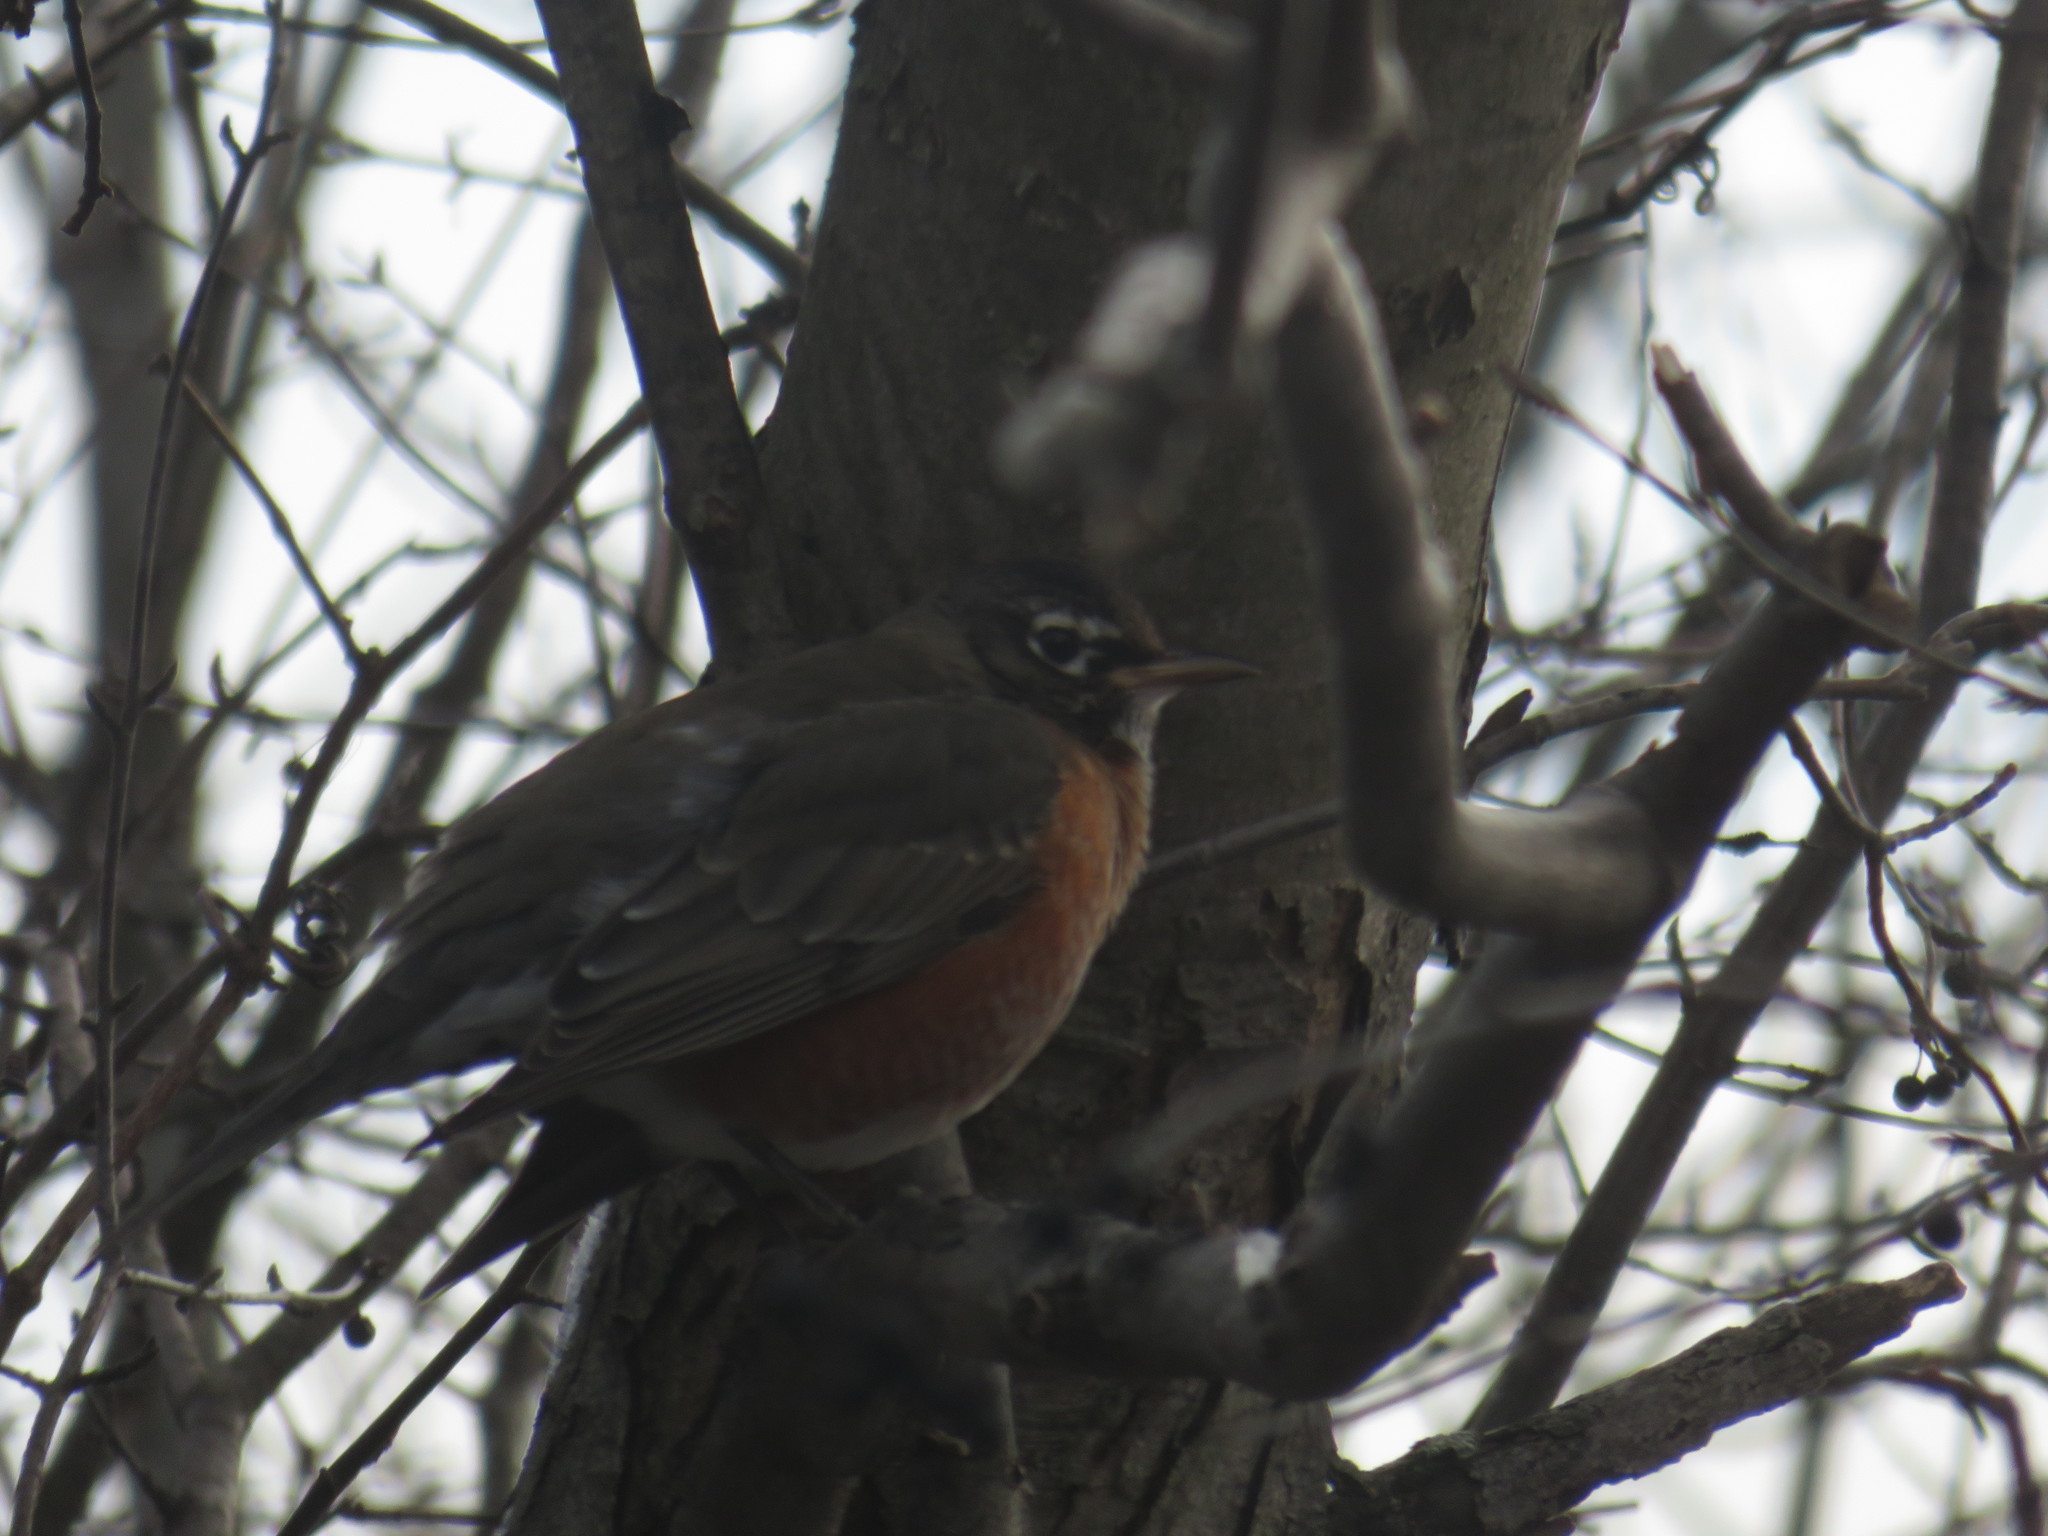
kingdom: Animalia
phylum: Chordata
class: Aves
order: Passeriformes
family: Turdidae
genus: Turdus
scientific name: Turdus migratorius
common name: American robin
